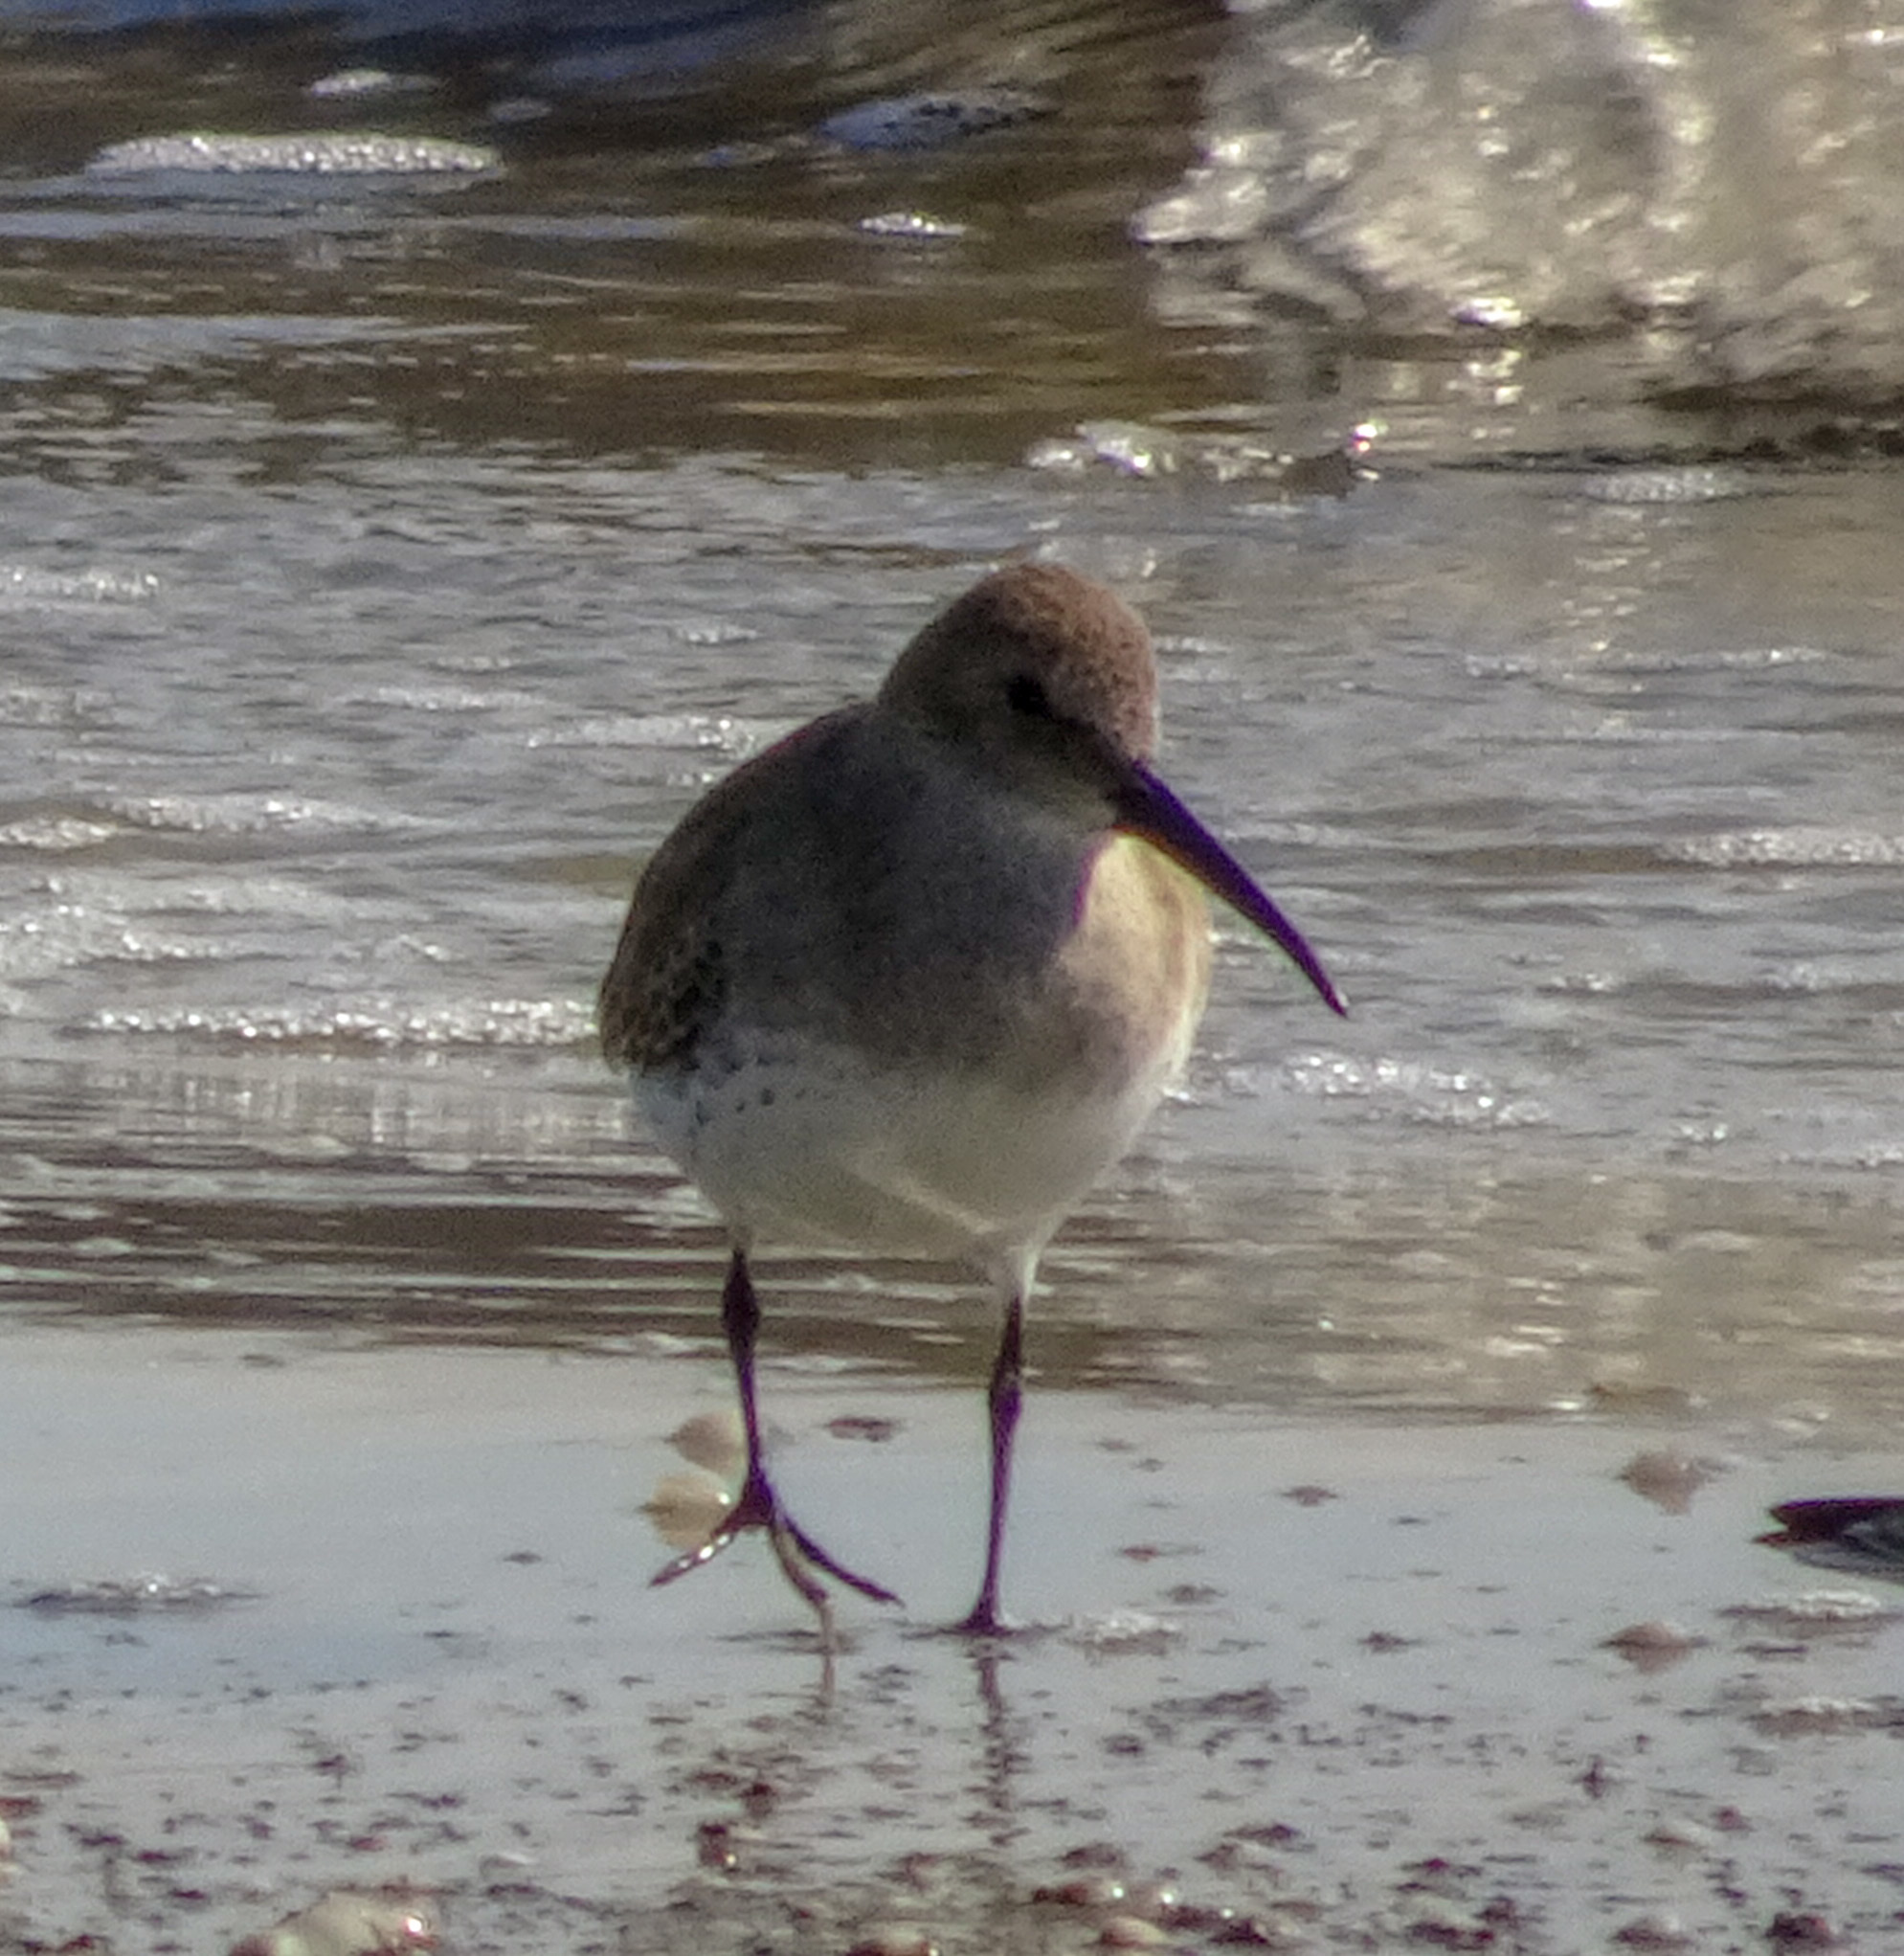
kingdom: Animalia
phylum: Chordata
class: Aves
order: Charadriiformes
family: Scolopacidae
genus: Calidris
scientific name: Calidris alpina
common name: Dunlin
